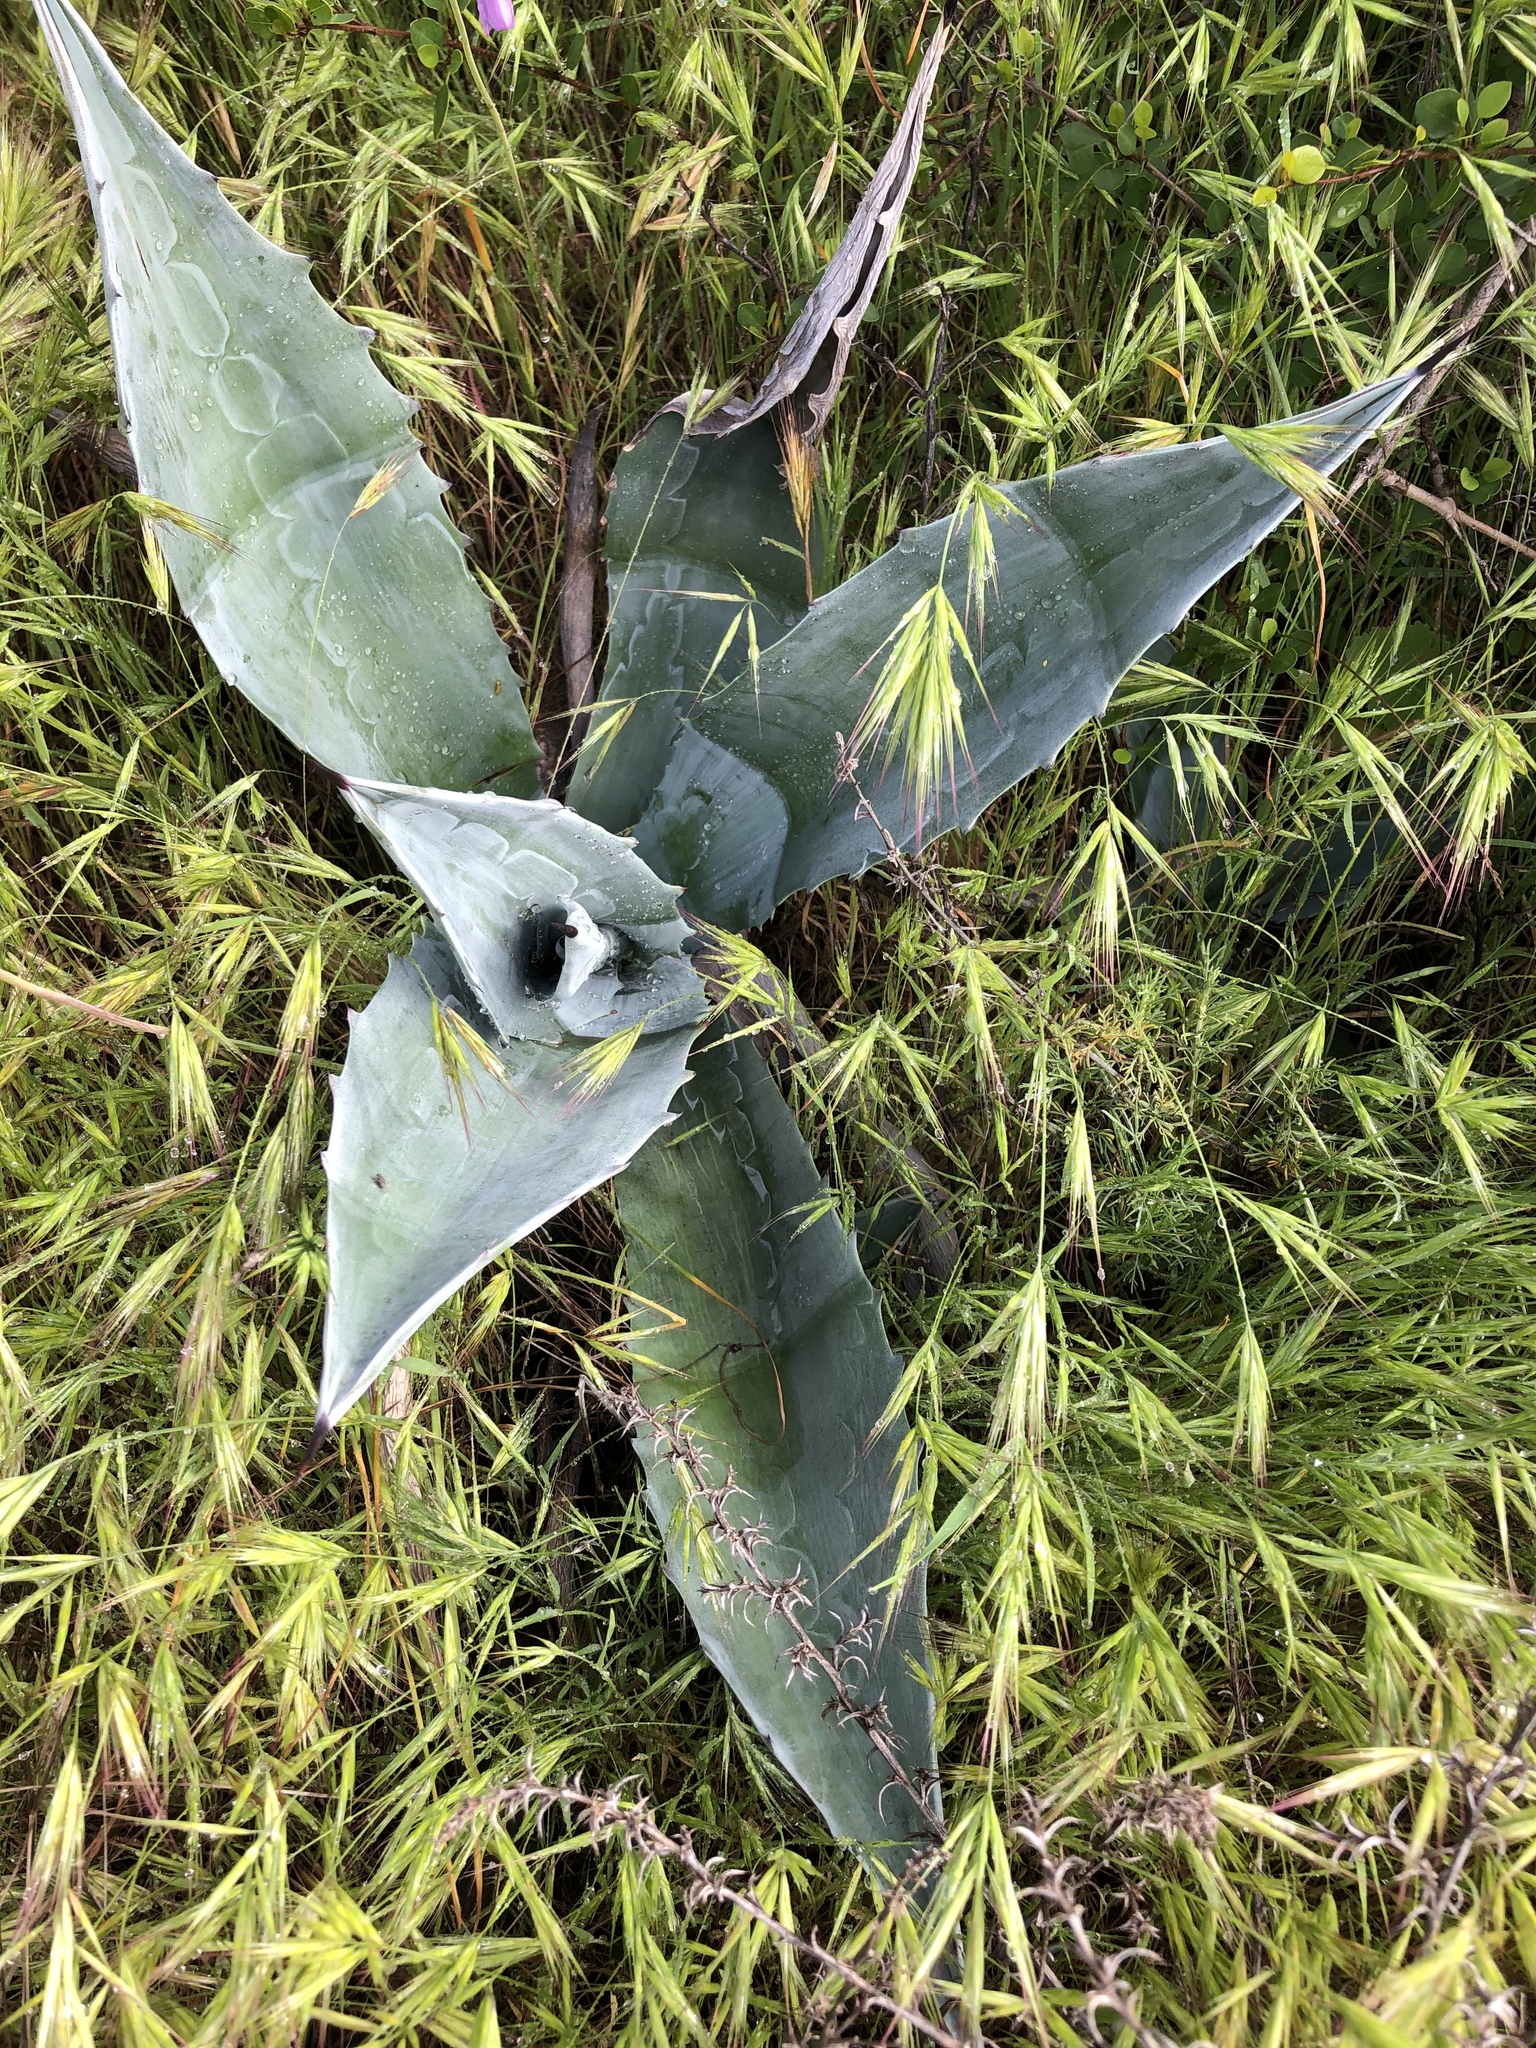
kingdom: Plantae
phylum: Tracheophyta
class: Liliopsida
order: Asparagales
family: Asparagaceae
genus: Agave
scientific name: Agave americana
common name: Centuryplant
